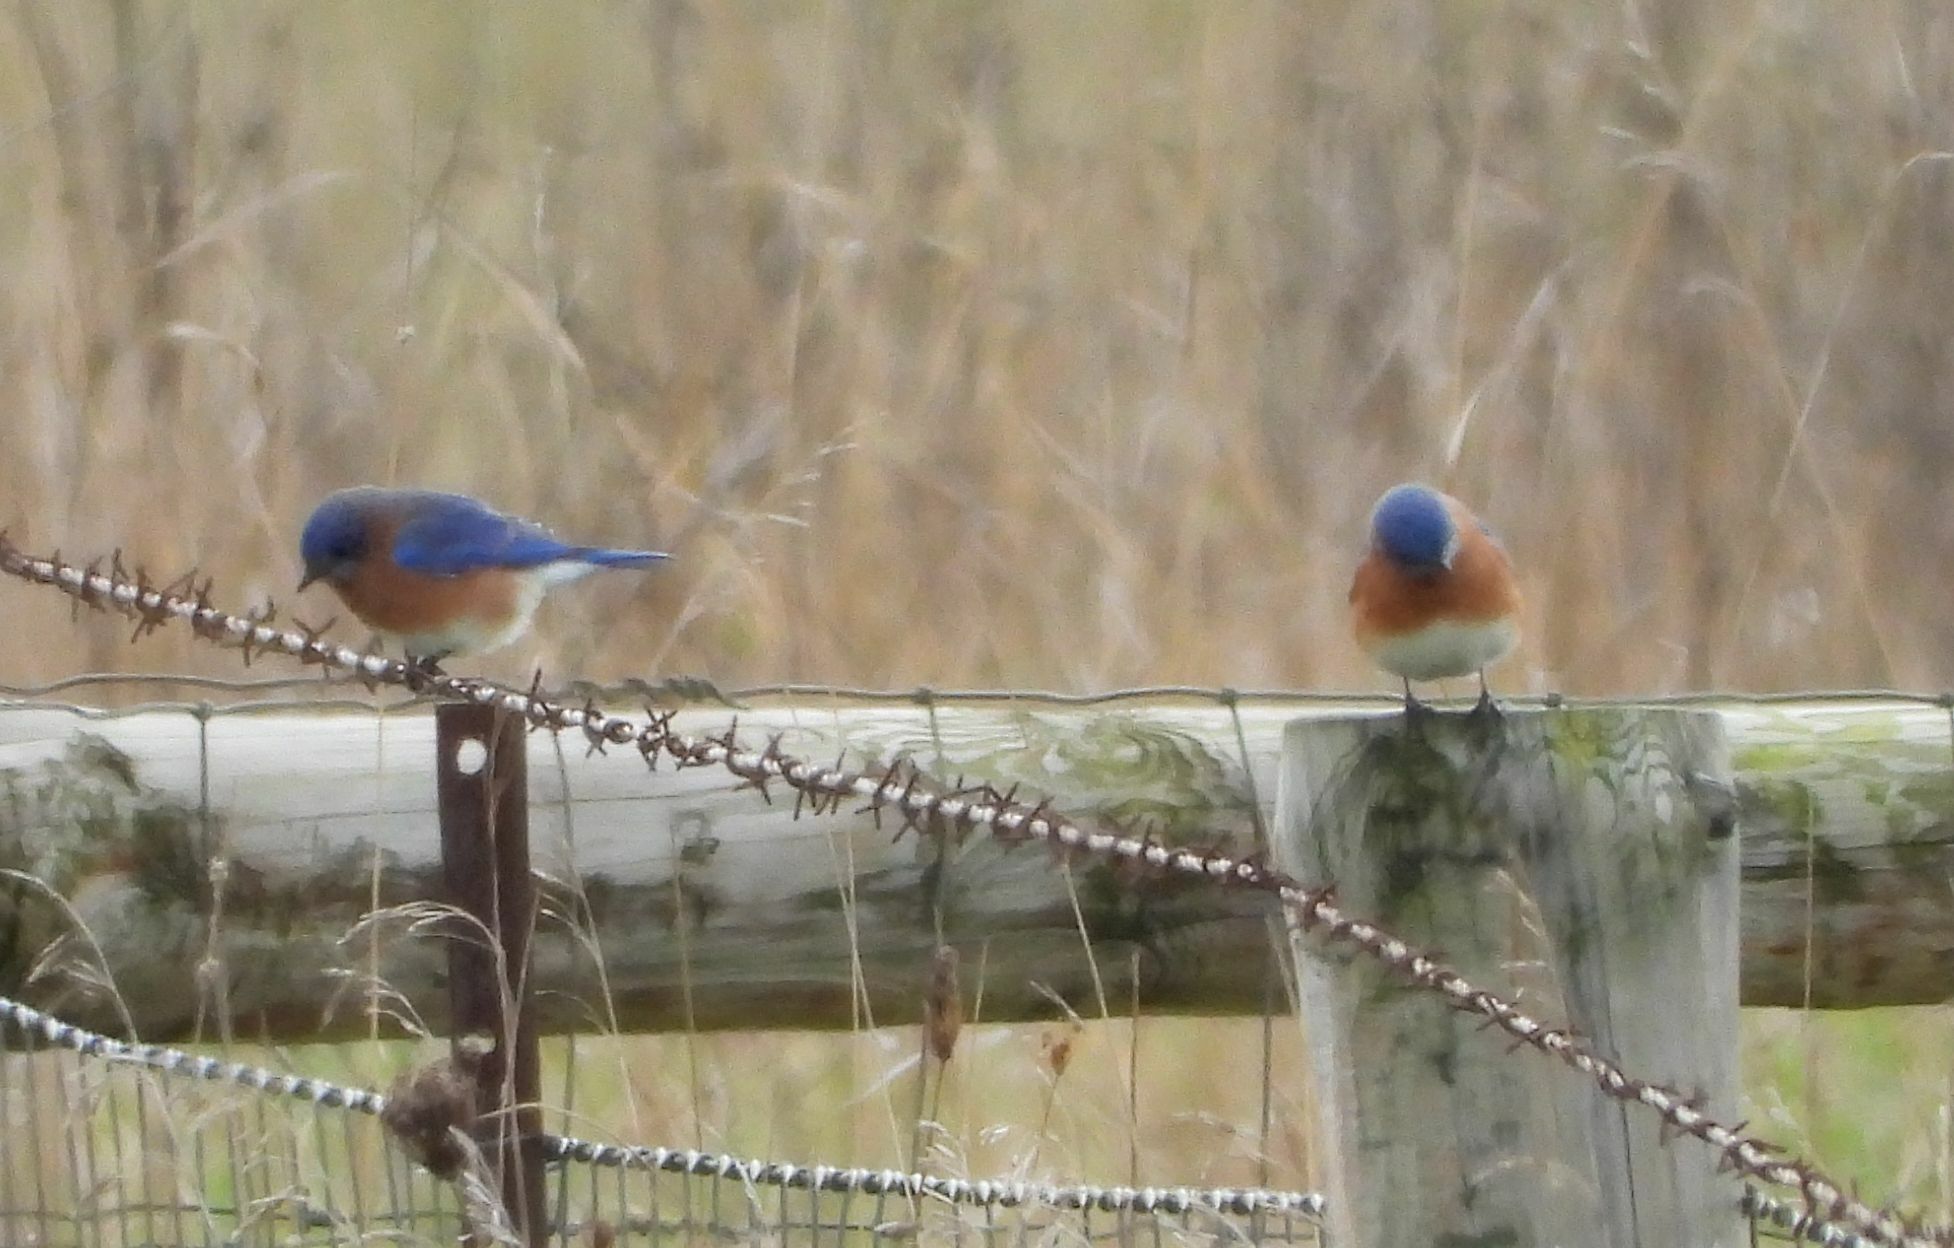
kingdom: Animalia
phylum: Chordata
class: Aves
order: Passeriformes
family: Turdidae
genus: Sialia
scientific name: Sialia sialis
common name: Eastern bluebird
